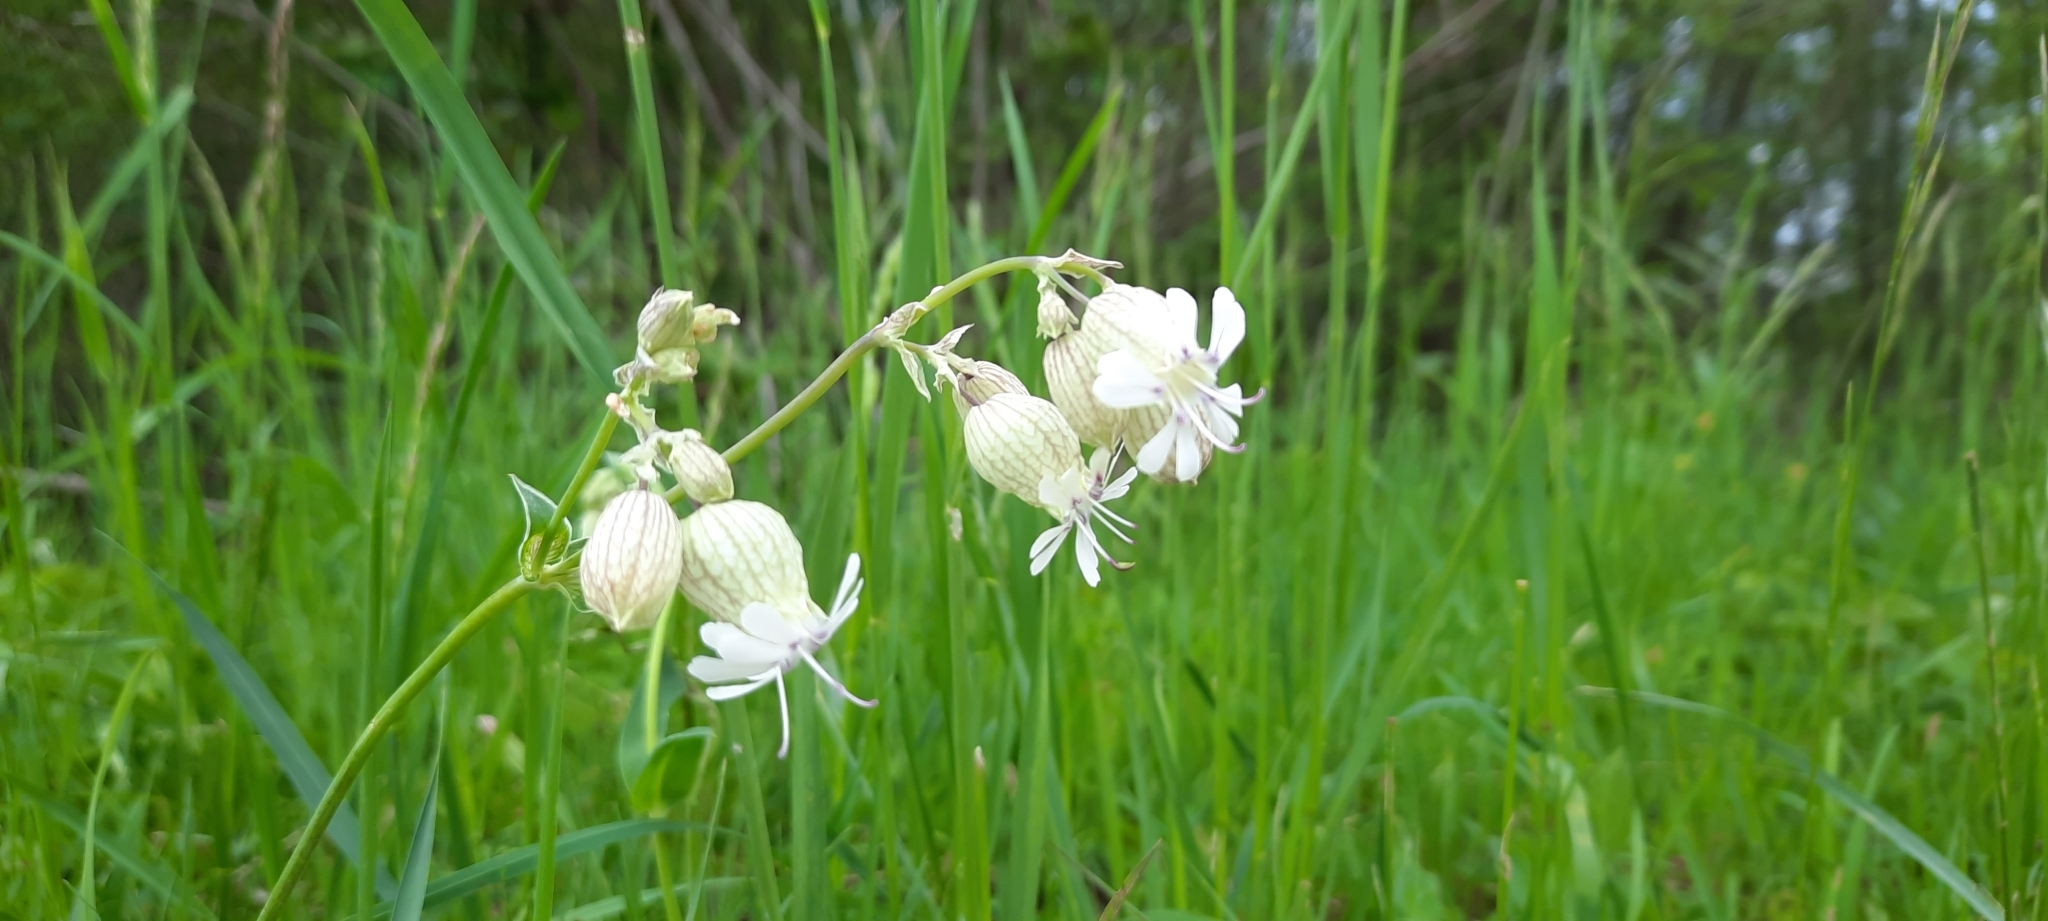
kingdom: Plantae
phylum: Tracheophyta
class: Magnoliopsida
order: Caryophyllales
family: Caryophyllaceae
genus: Silene
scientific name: Silene vulgaris
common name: Bladder campion
